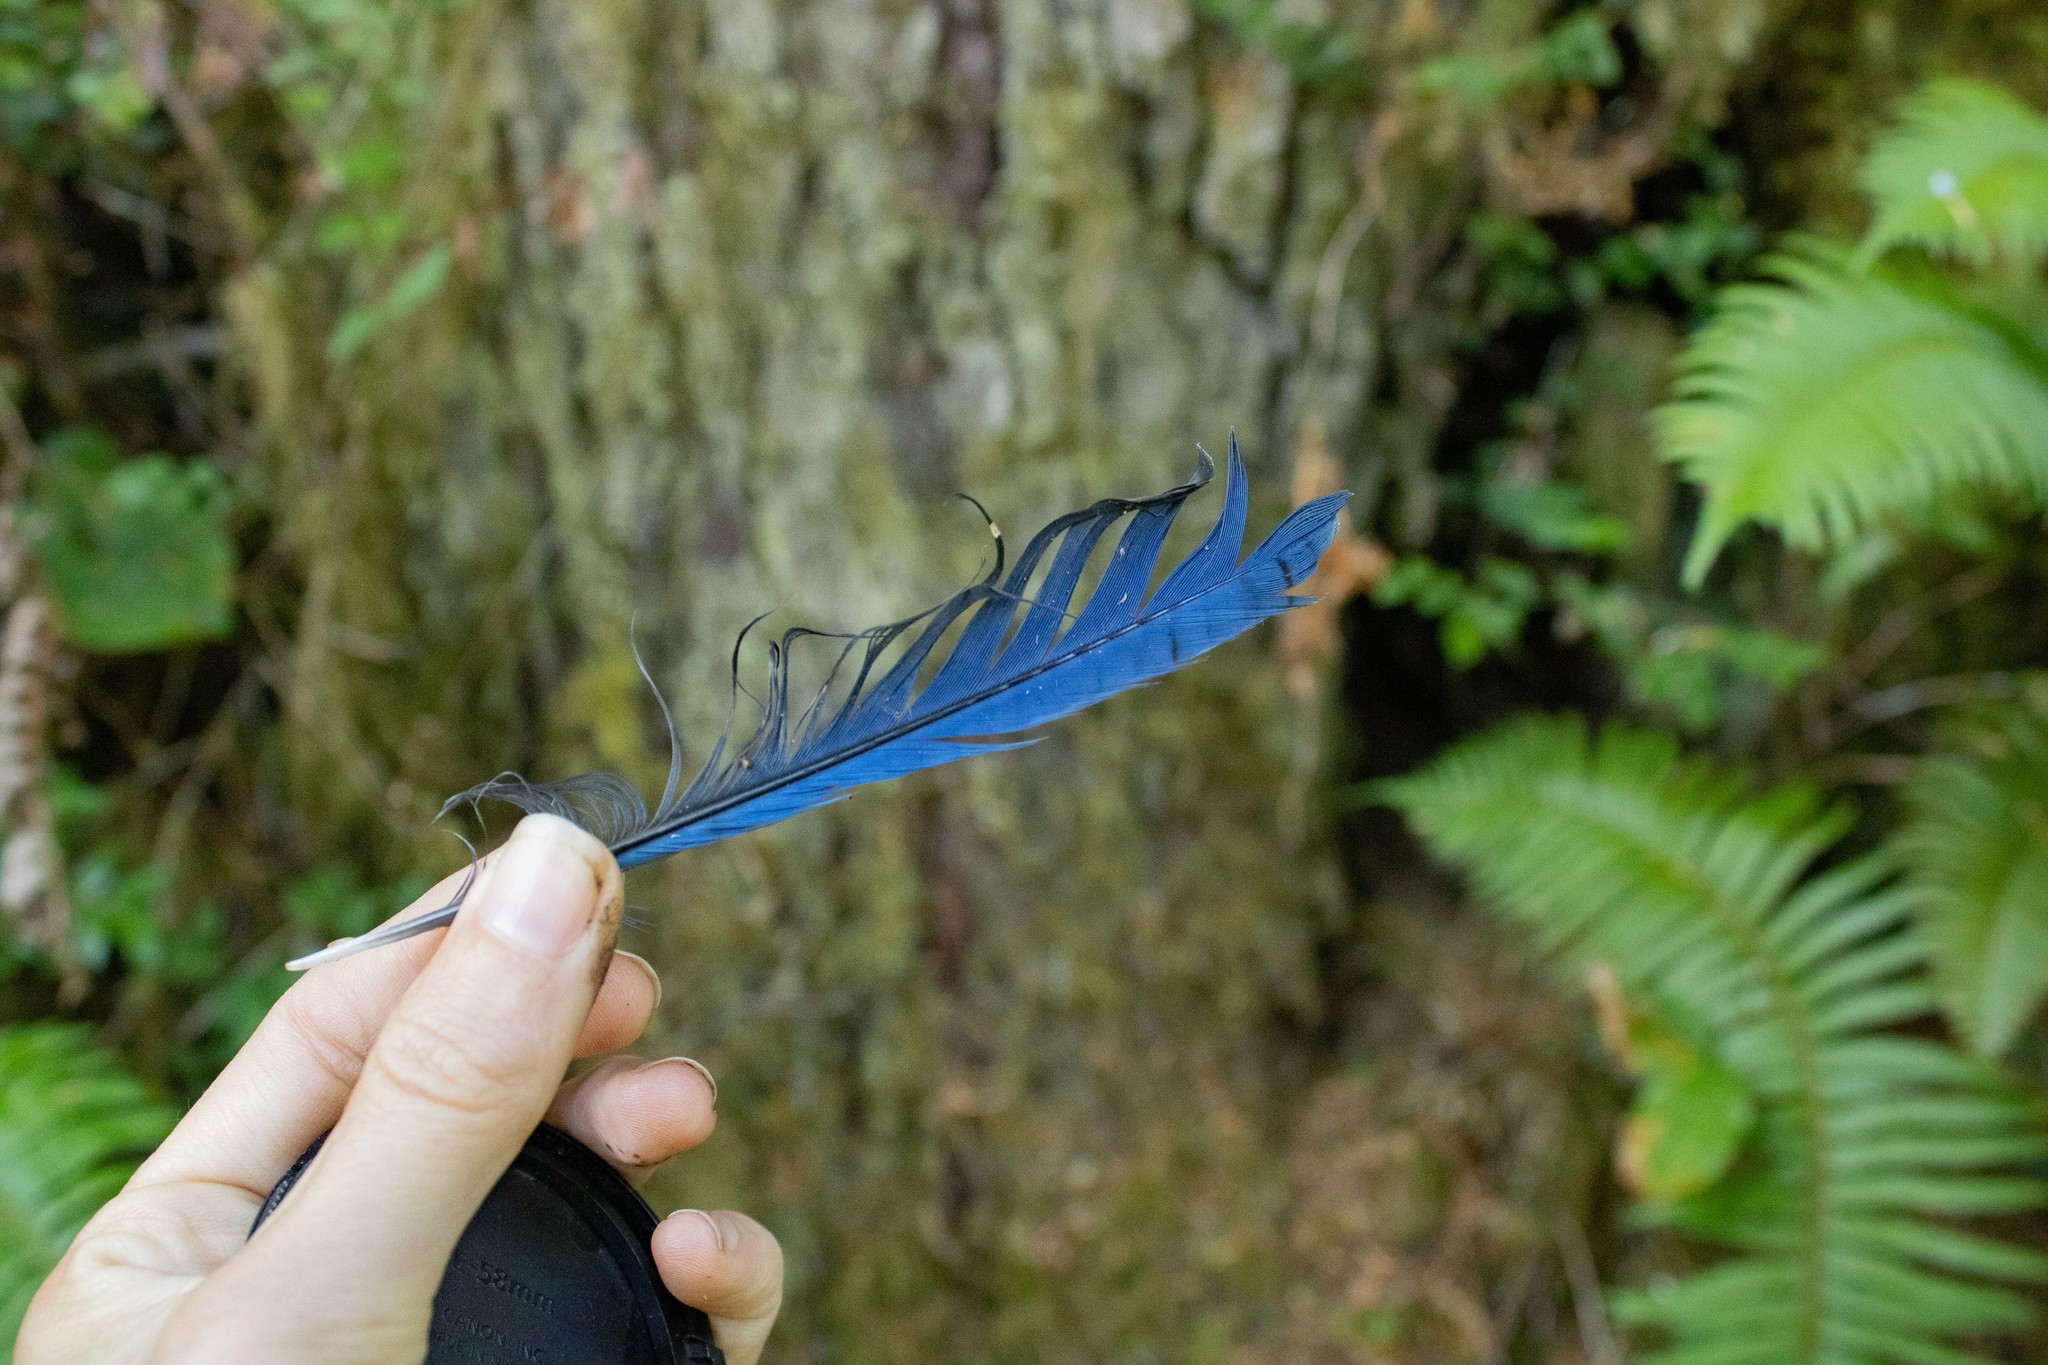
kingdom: Animalia
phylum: Chordata
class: Aves
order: Passeriformes
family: Corvidae
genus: Cyanocitta
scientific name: Cyanocitta stelleri
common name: Steller's jay
